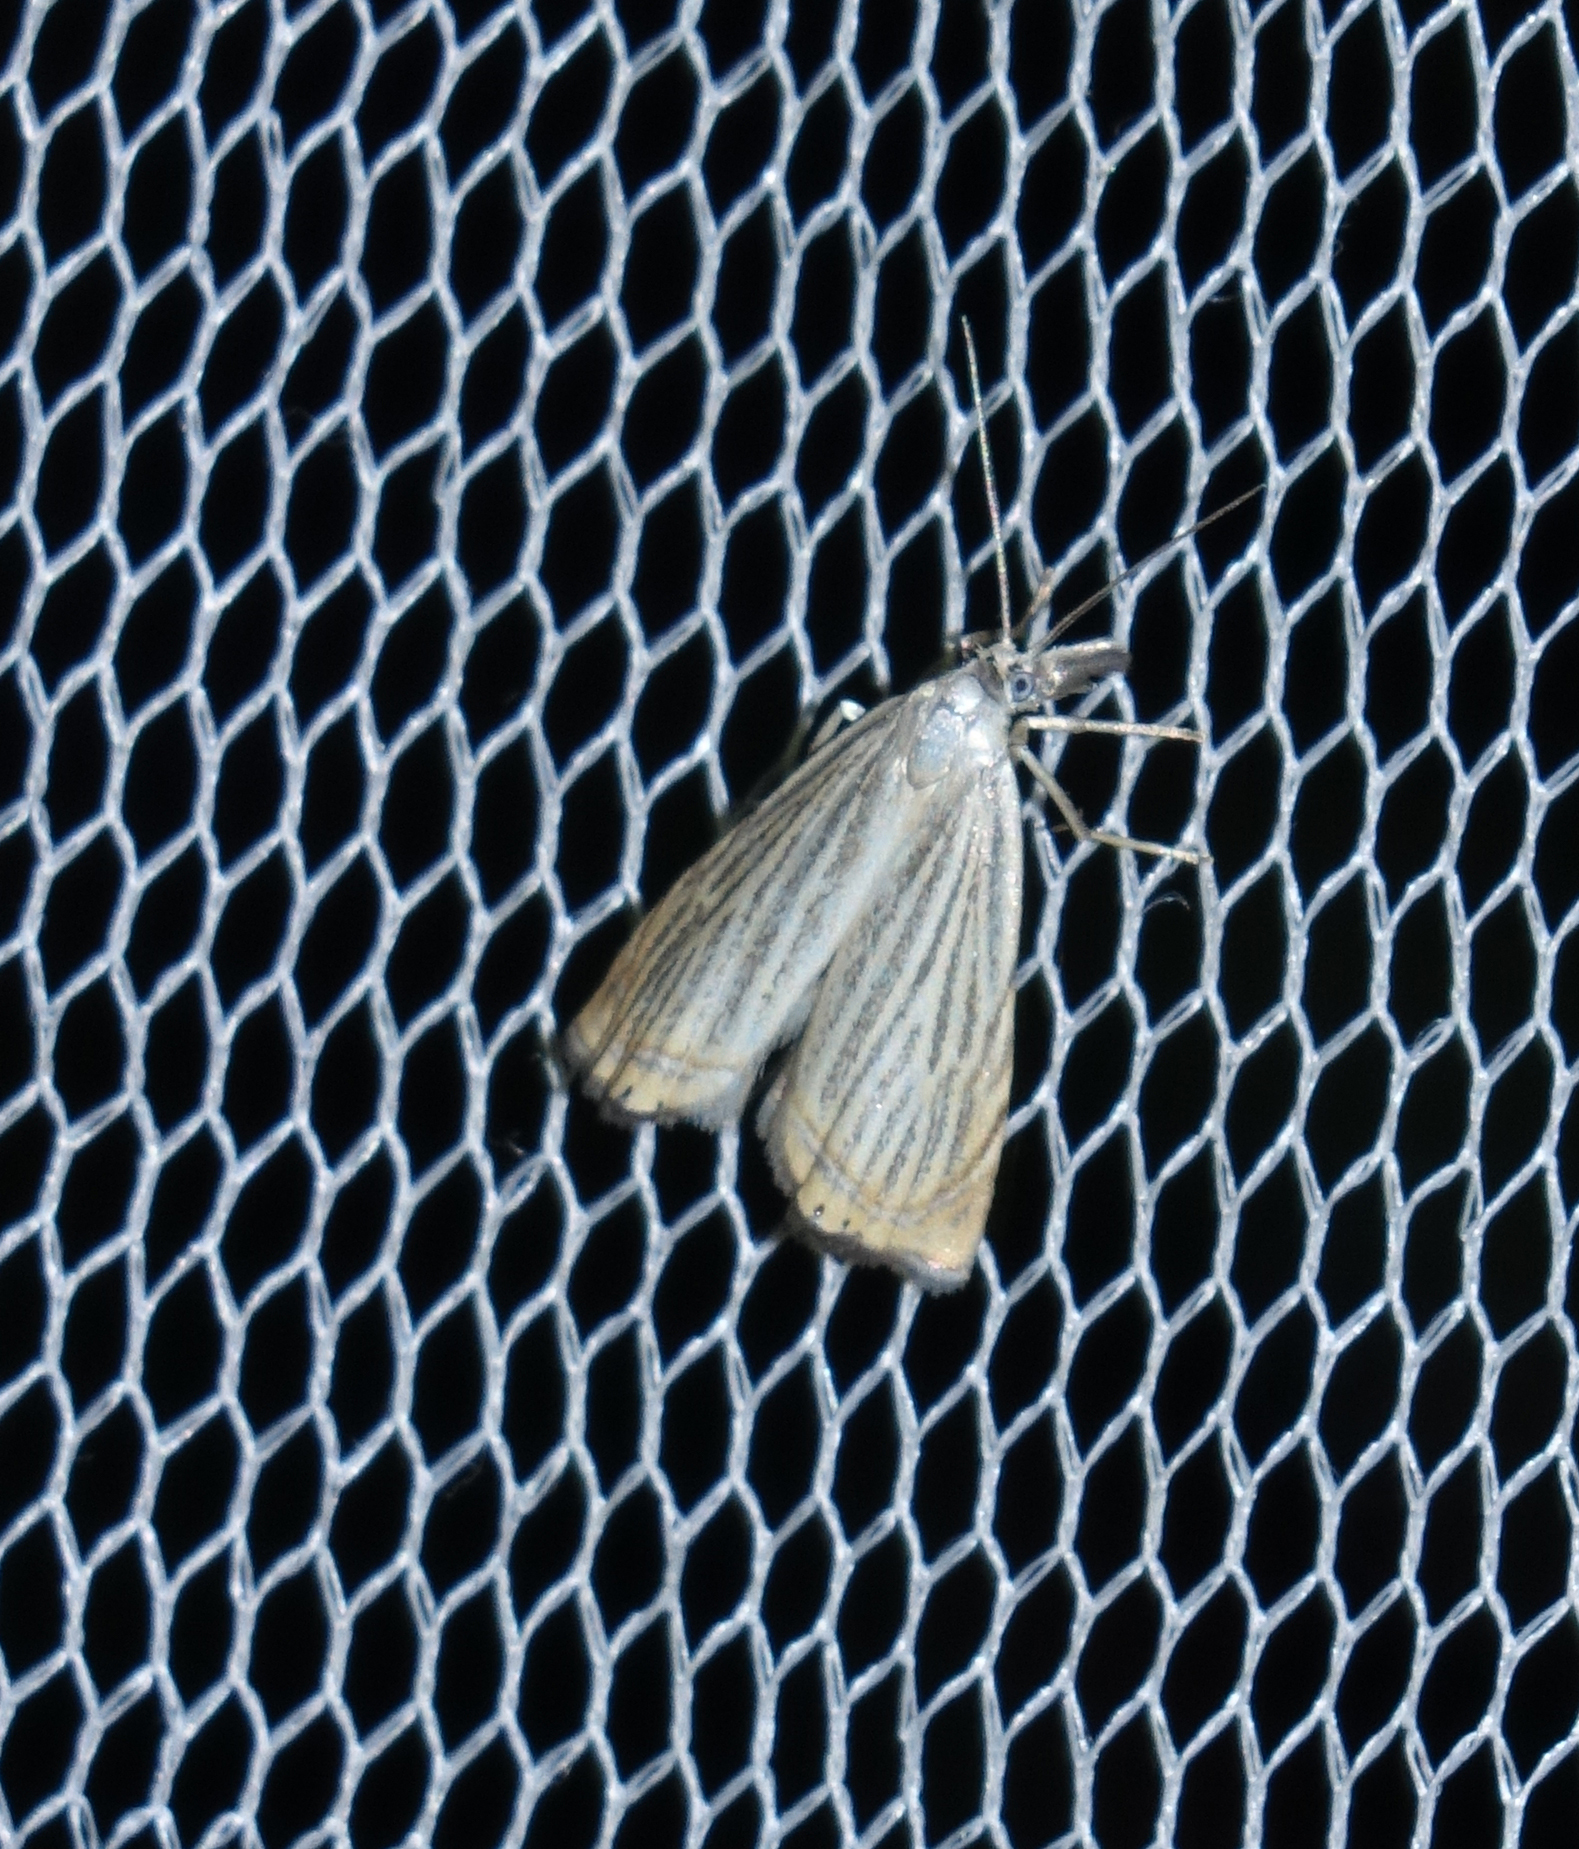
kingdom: Animalia
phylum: Arthropoda
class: Insecta
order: Lepidoptera
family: Crambidae
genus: Chrysoteuchia
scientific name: Chrysoteuchia culmella
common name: Garden grass-veneer
